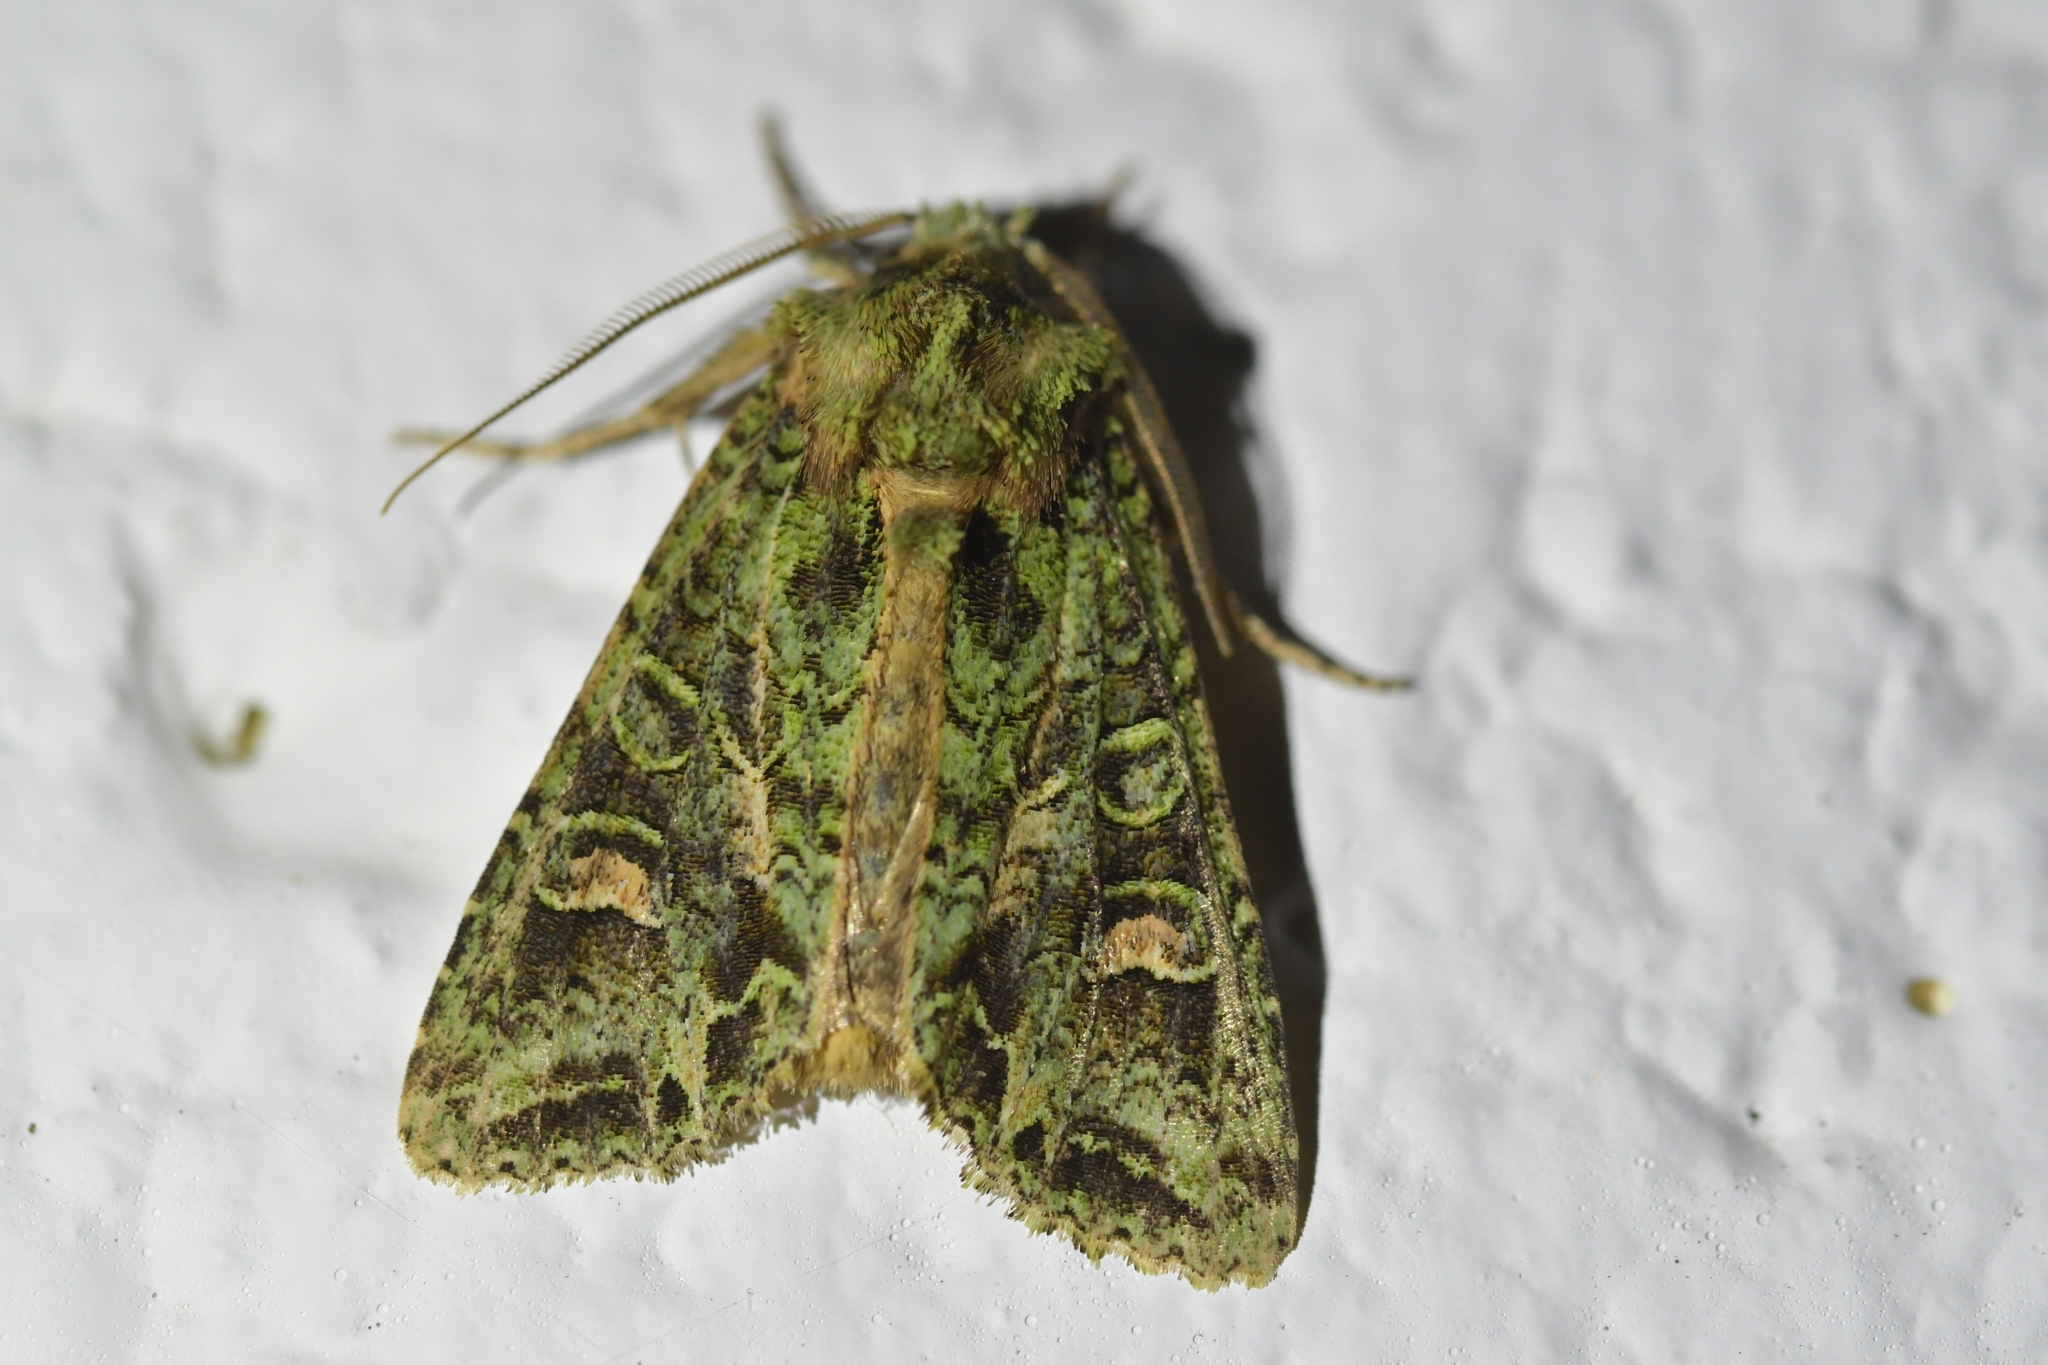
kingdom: Animalia
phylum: Arthropoda
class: Insecta
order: Lepidoptera
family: Noctuidae
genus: Ichneutica
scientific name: Ichneutica
